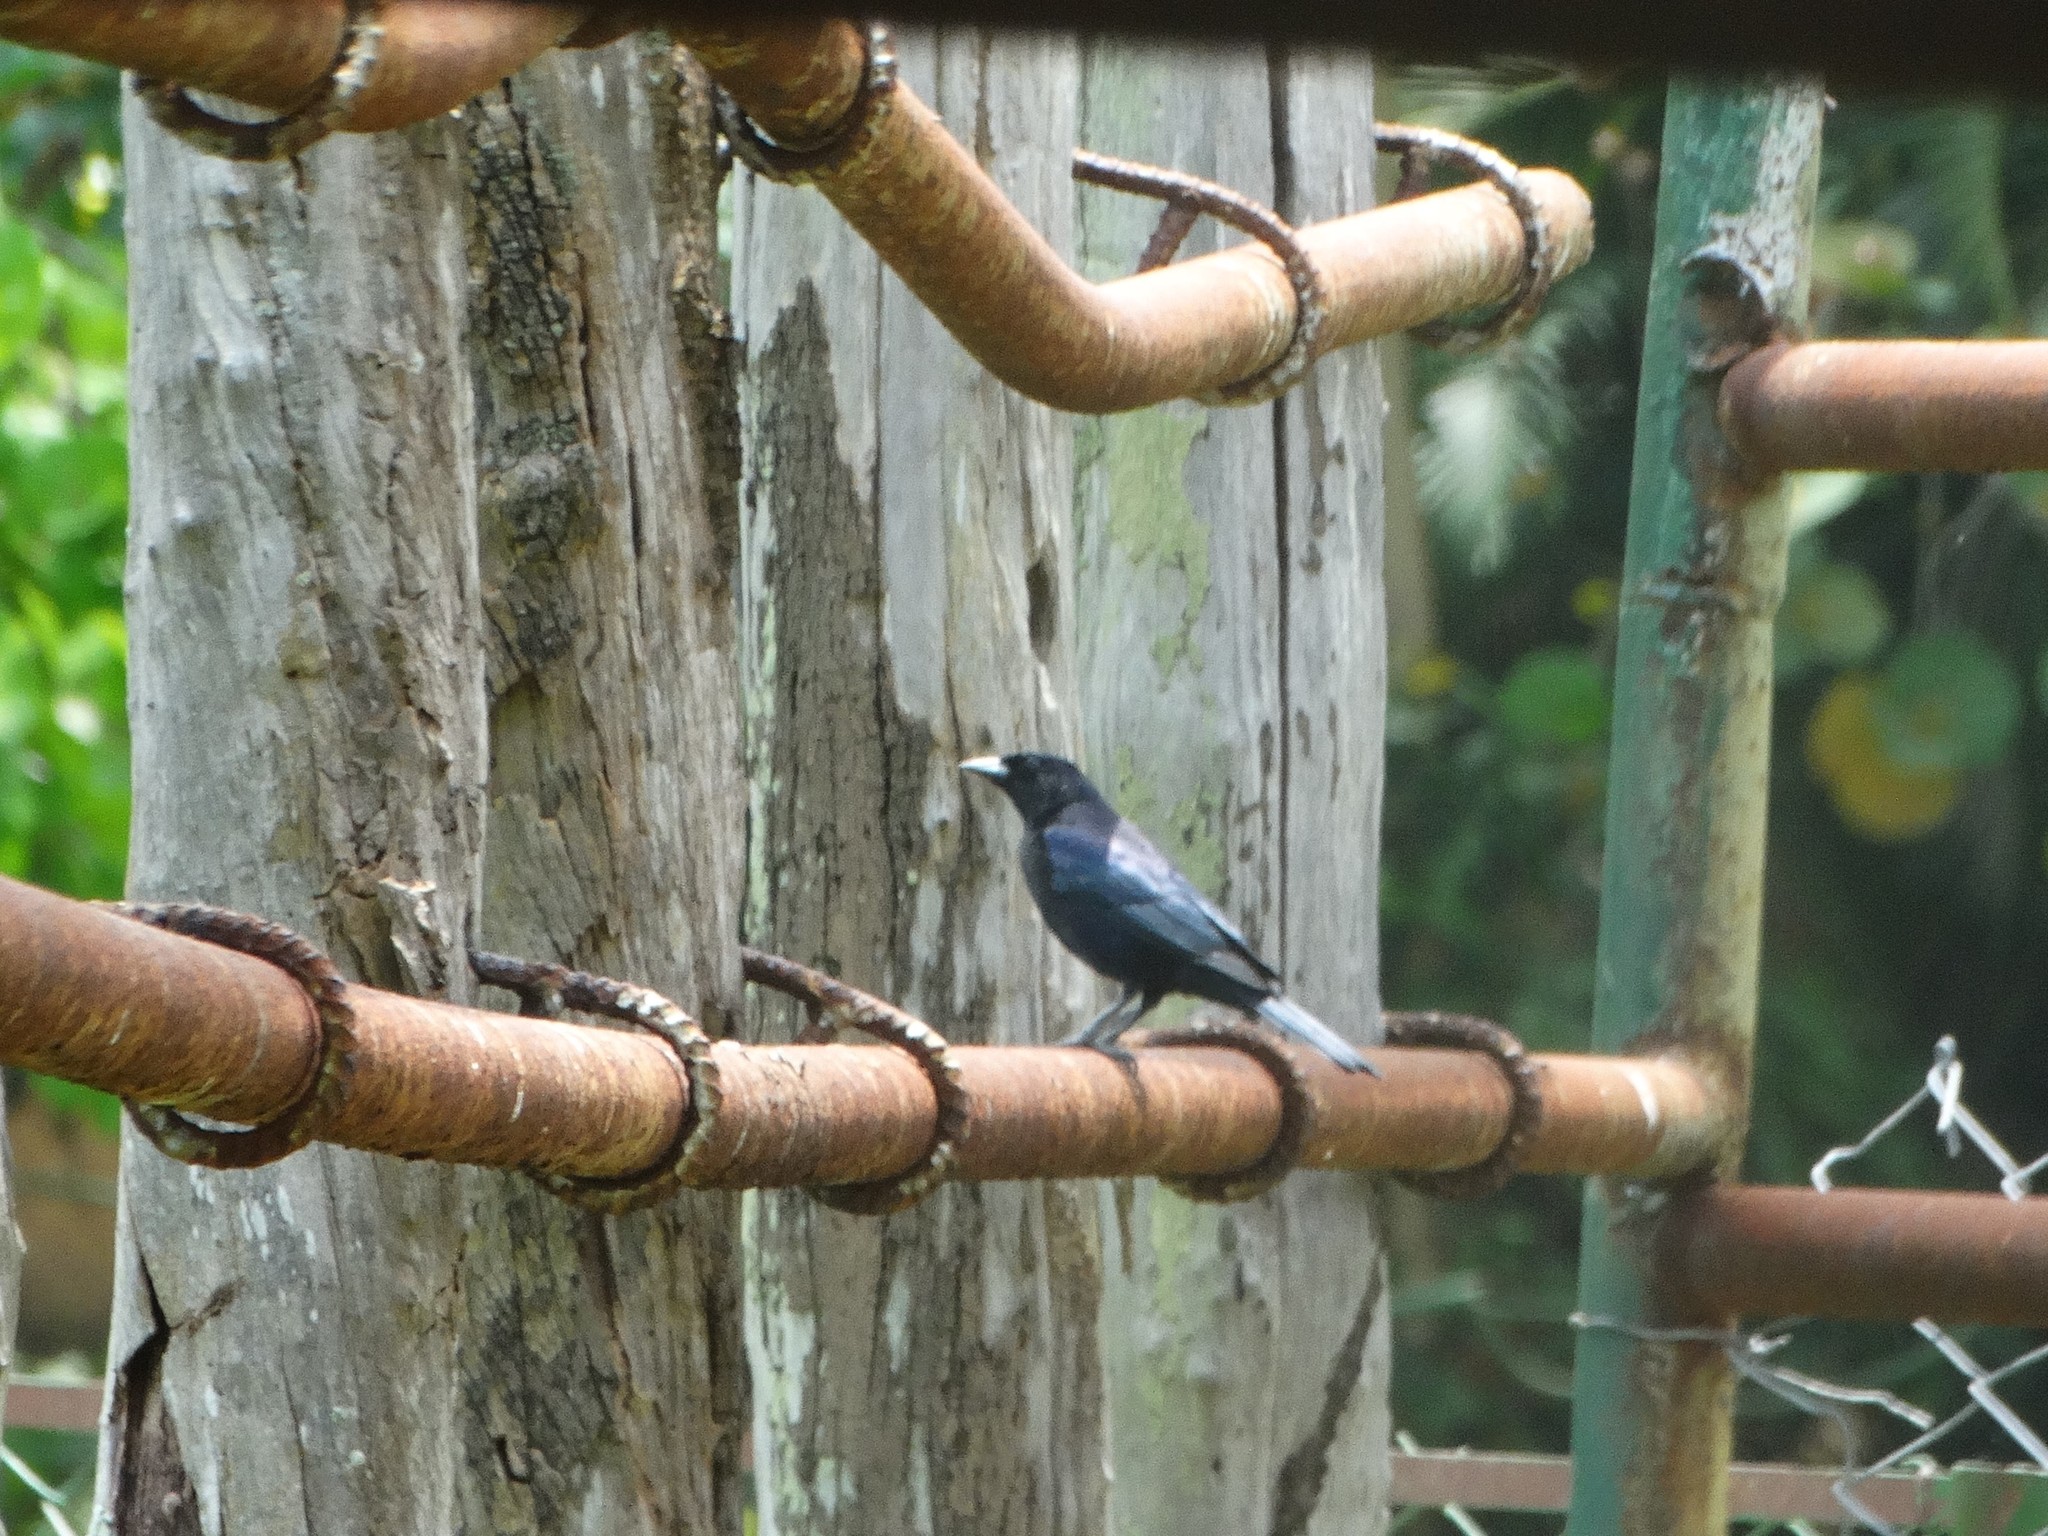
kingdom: Animalia
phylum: Chordata
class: Aves
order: Passeriformes
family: Icteridae
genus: Dives
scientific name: Dives atroviolaceus
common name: Cuban blackbird
